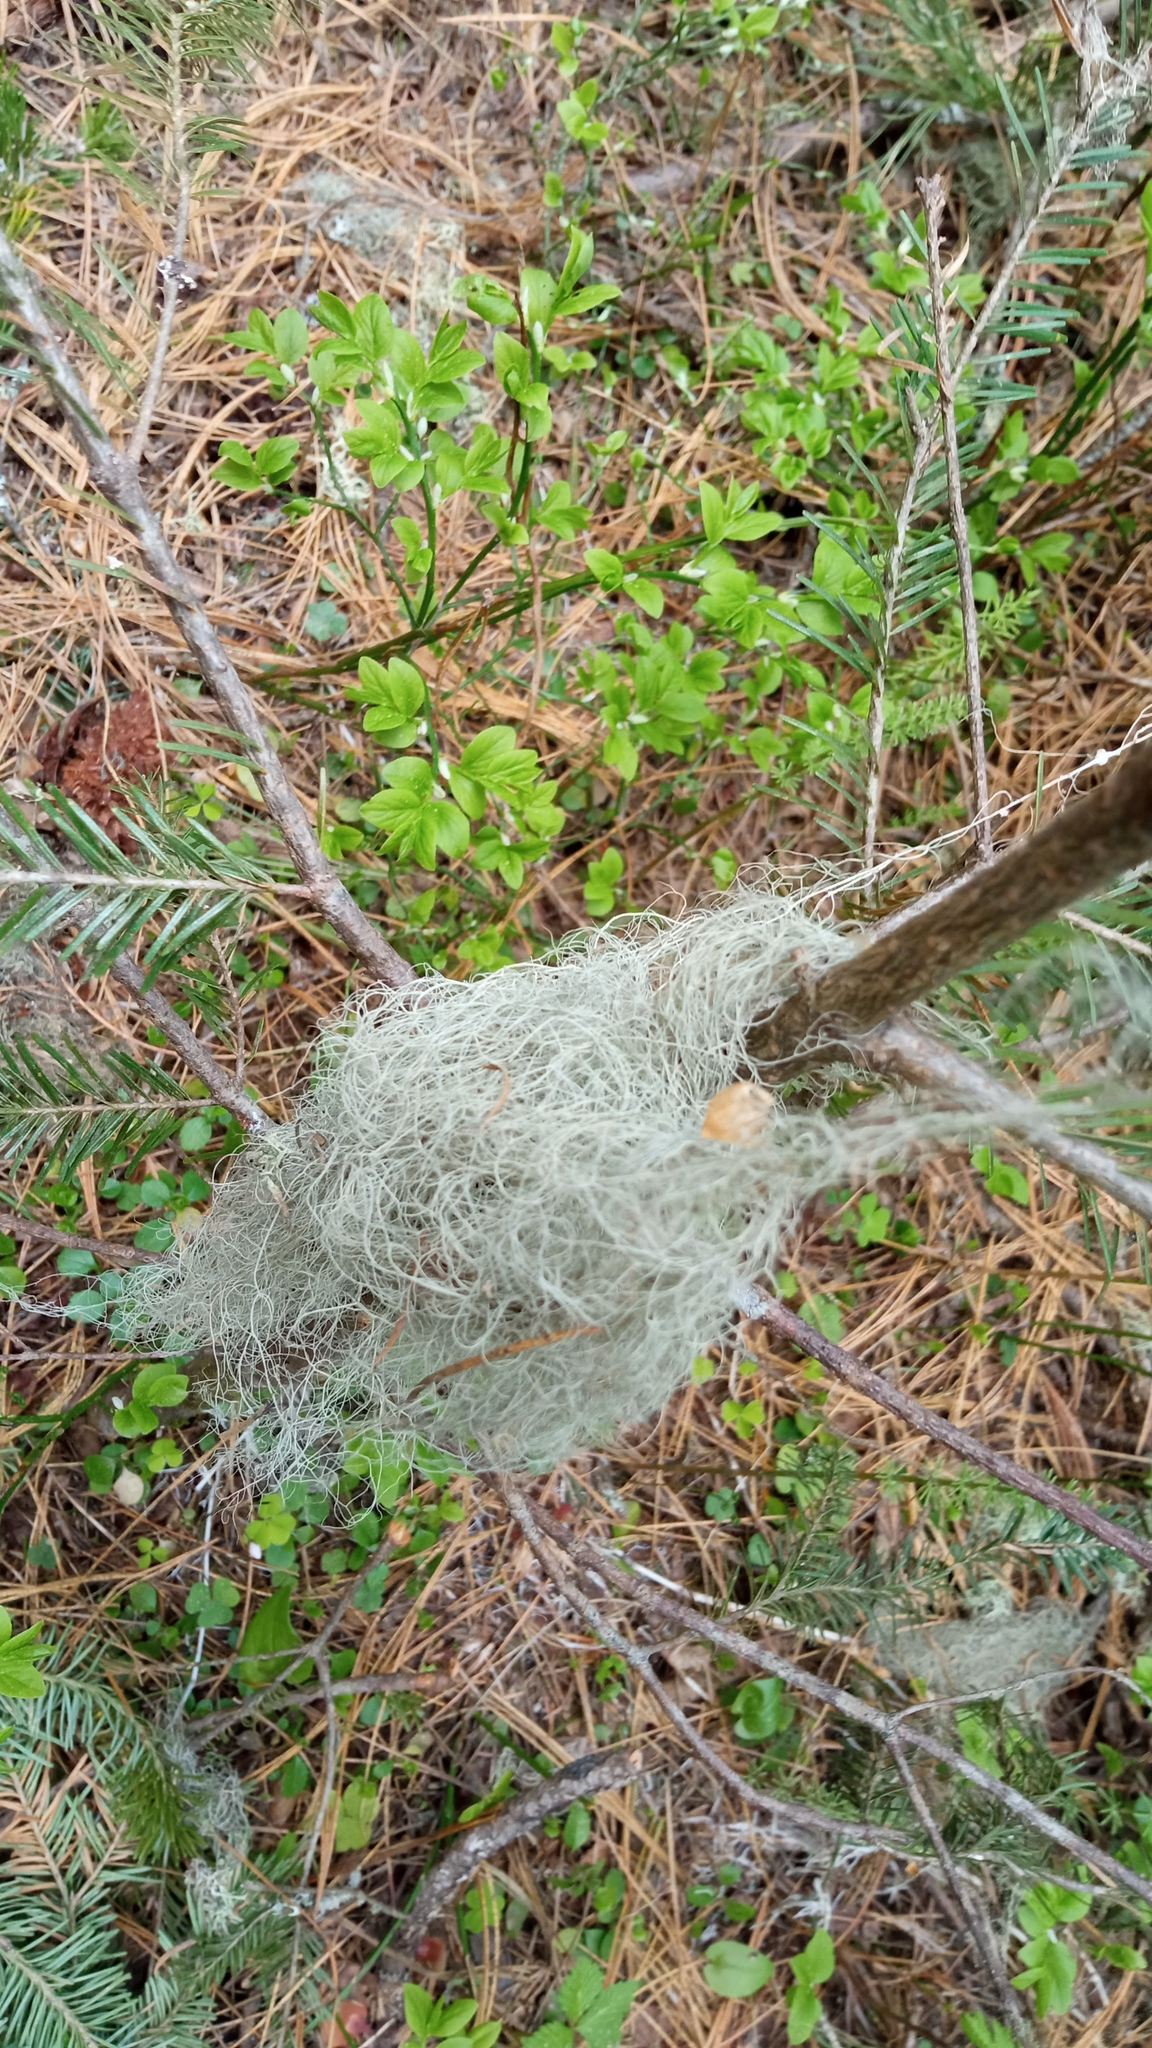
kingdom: Fungi
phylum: Ascomycota
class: Lecanoromycetes
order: Lecanorales
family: Parmeliaceae
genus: Bryoria
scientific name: Bryoria fuscescens
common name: Pale-footed horsehair lichen
